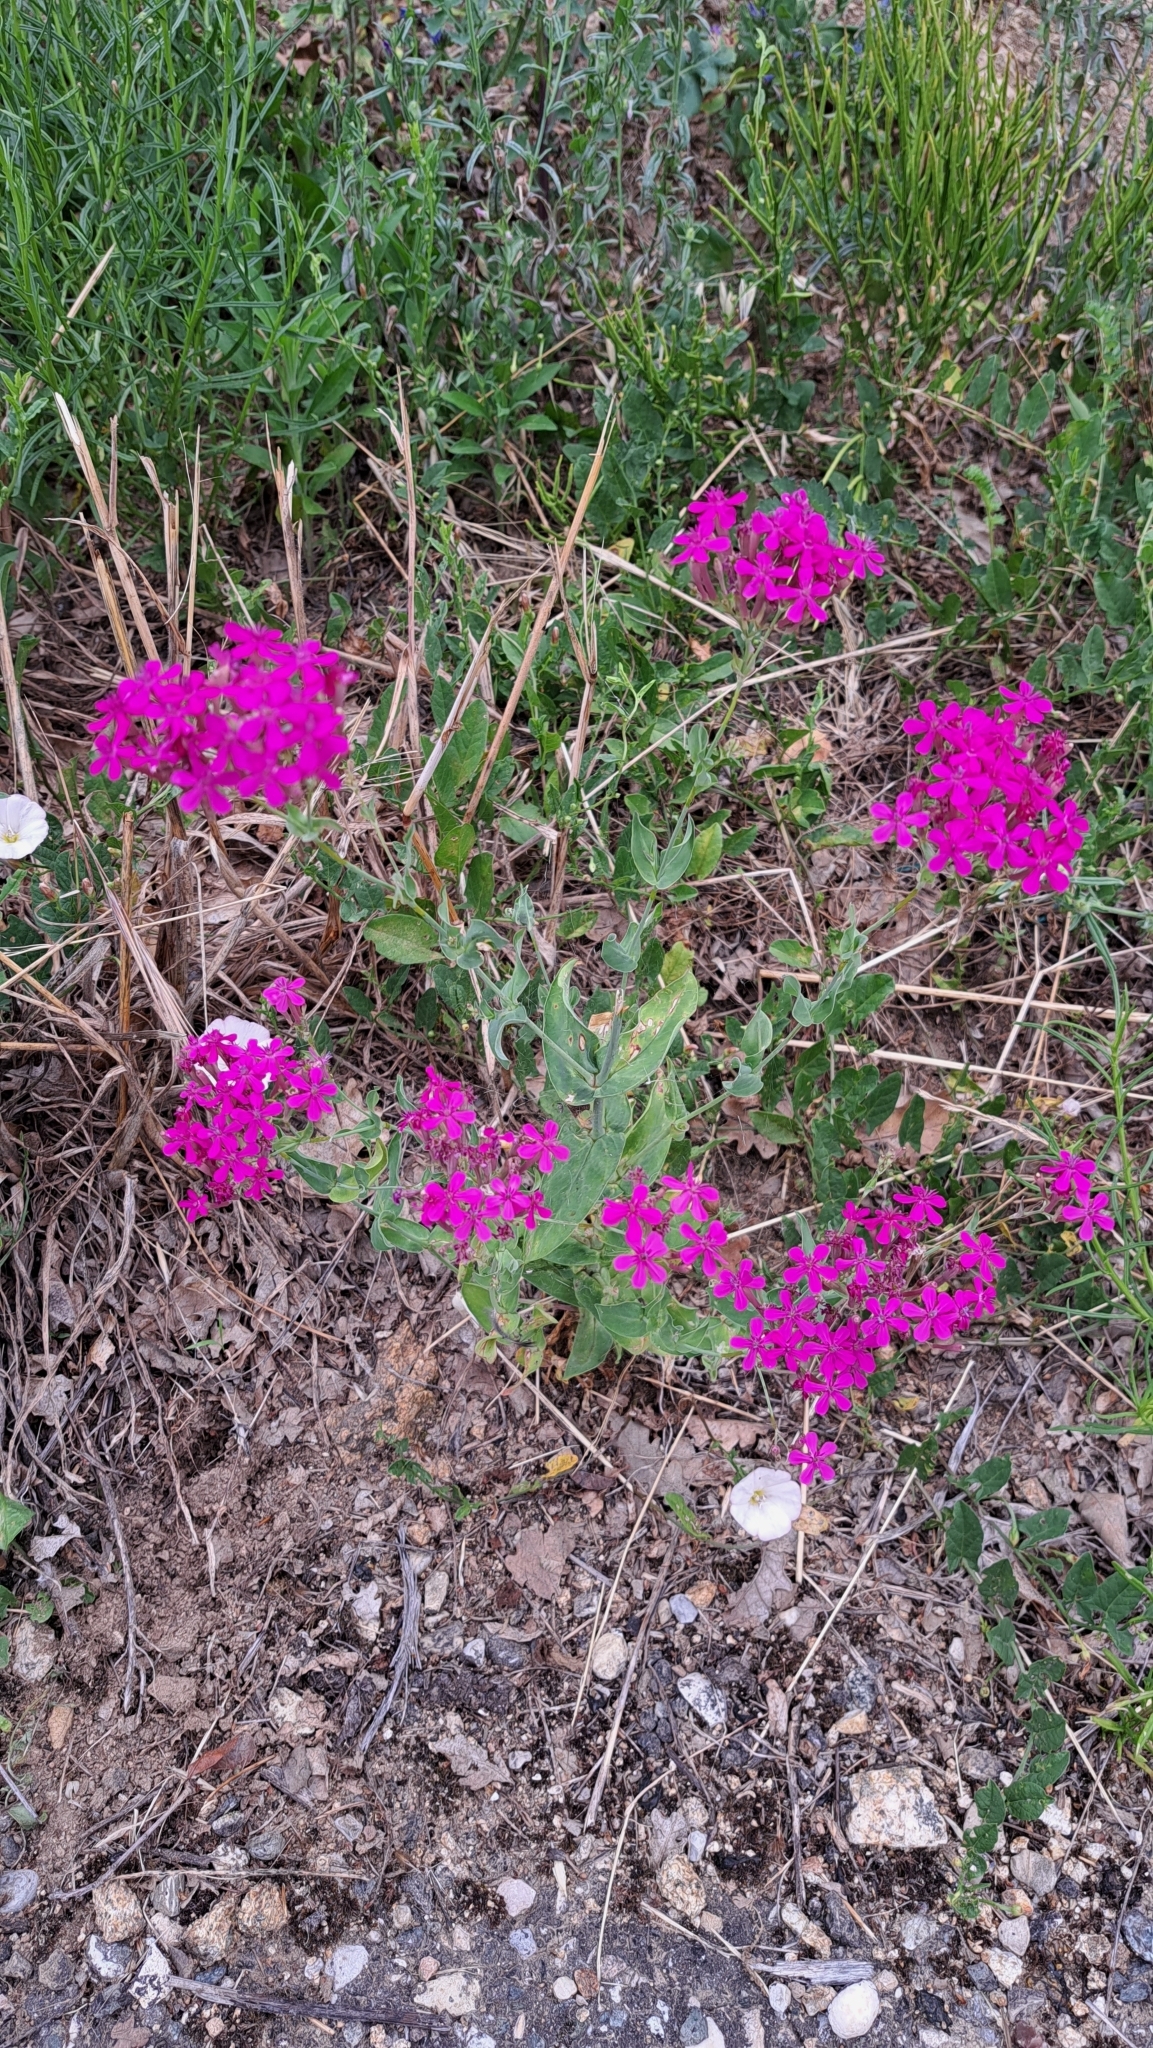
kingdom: Plantae
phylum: Tracheophyta
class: Magnoliopsida
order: Caryophyllales
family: Caryophyllaceae
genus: Atocion
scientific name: Atocion armeria
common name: Sweet william catchfly
